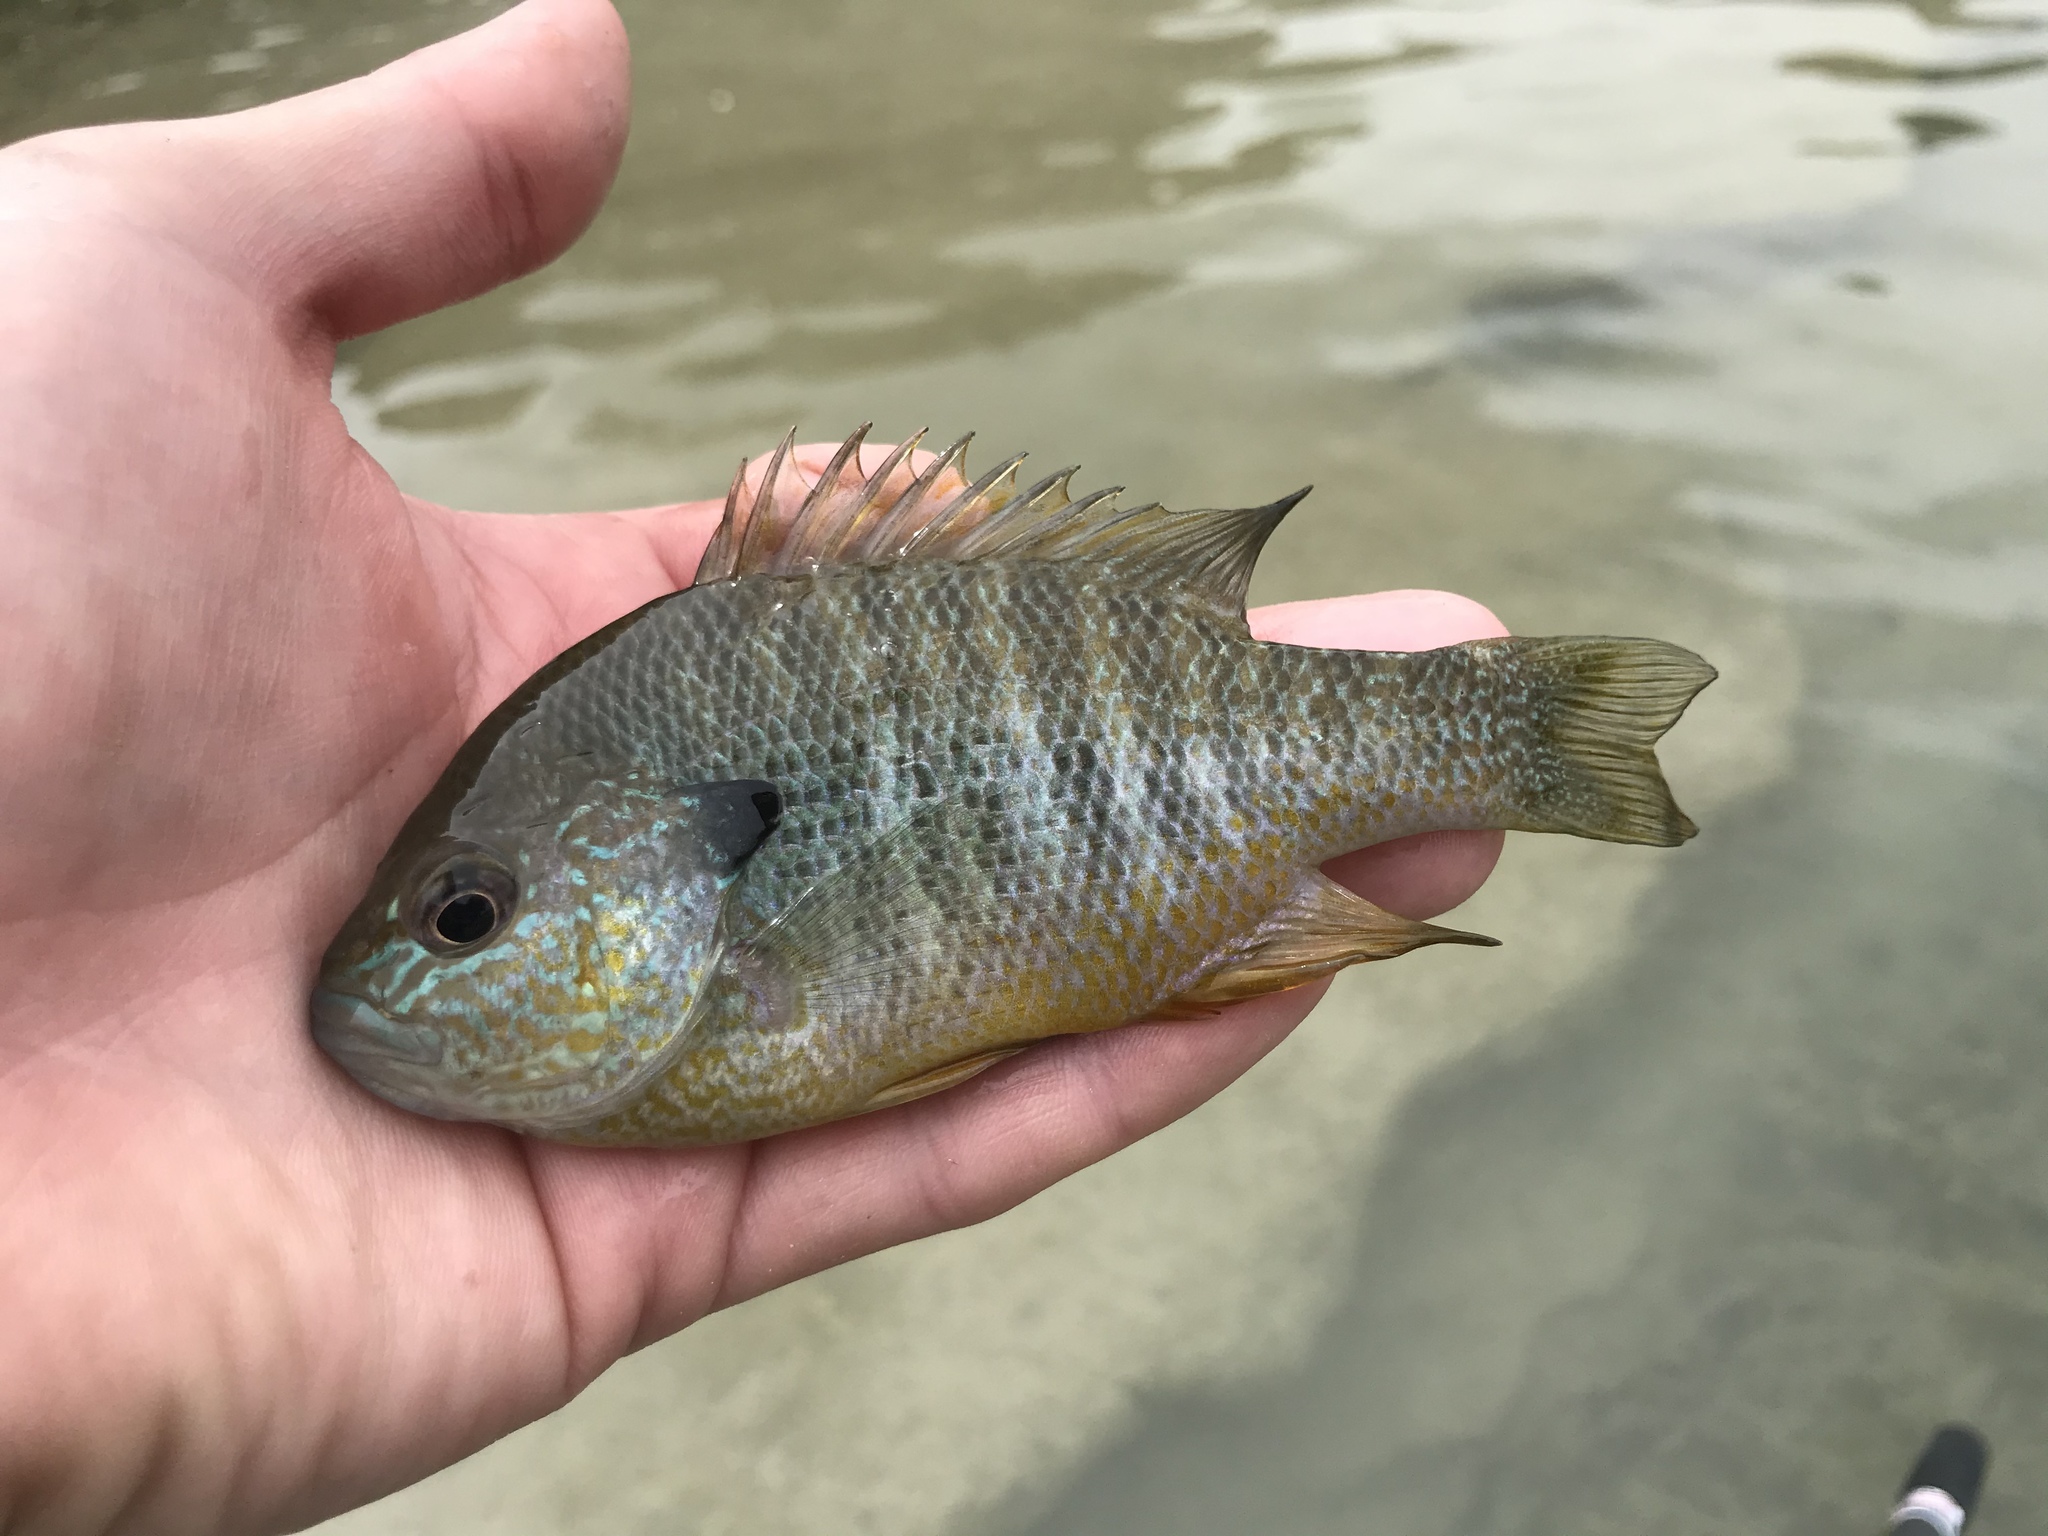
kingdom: Animalia
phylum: Chordata
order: Perciformes
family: Centrarchidae
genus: Lepomis
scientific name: Lepomis megalotis
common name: Longear sunfish
